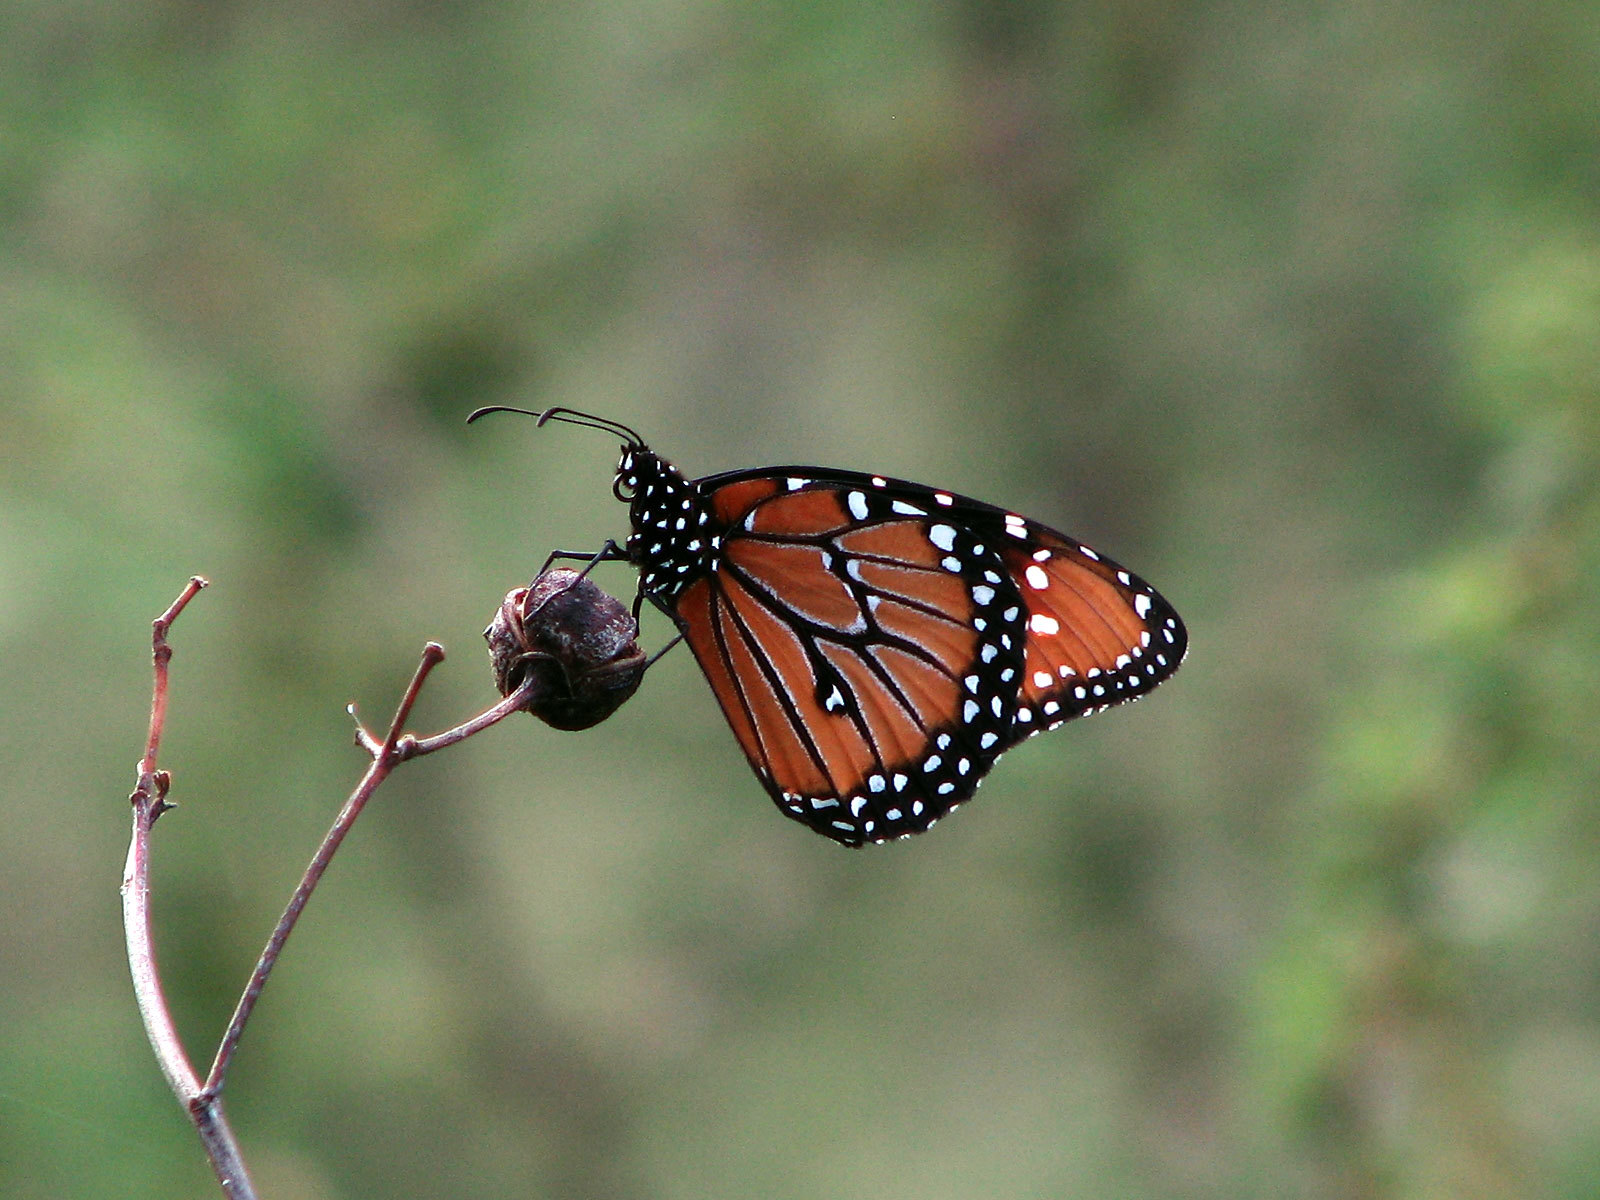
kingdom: Animalia
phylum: Arthropoda
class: Insecta
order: Lepidoptera
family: Nymphalidae
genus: Danaus
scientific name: Danaus gilippus
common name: Queen
